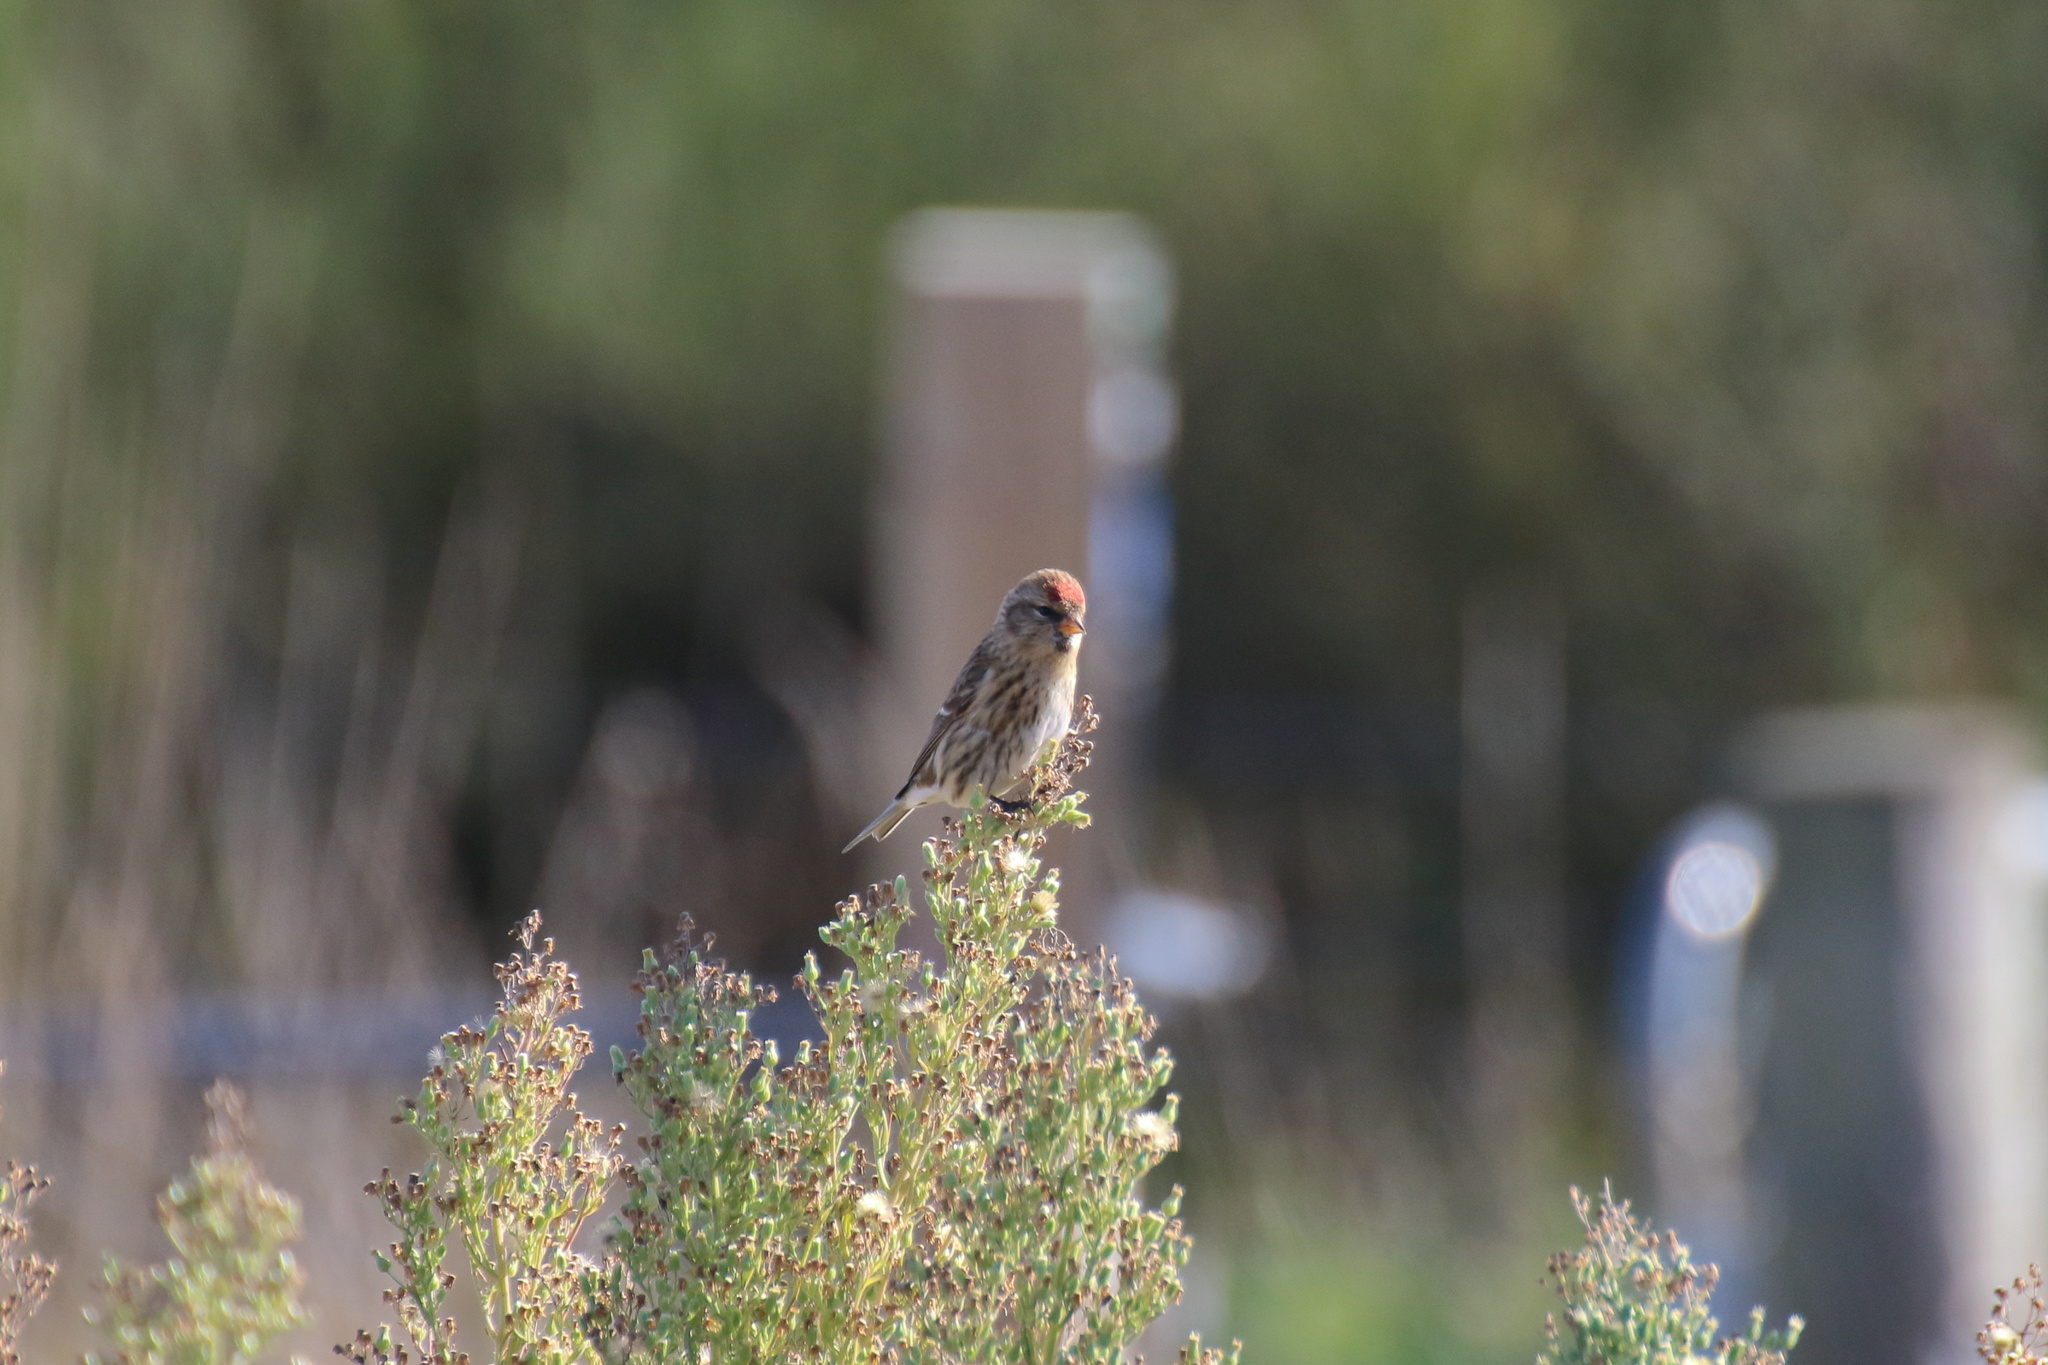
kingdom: Animalia
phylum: Chordata
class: Aves
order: Passeriformes
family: Fringillidae
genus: Acanthis
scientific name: Acanthis flammea
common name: Common redpoll
